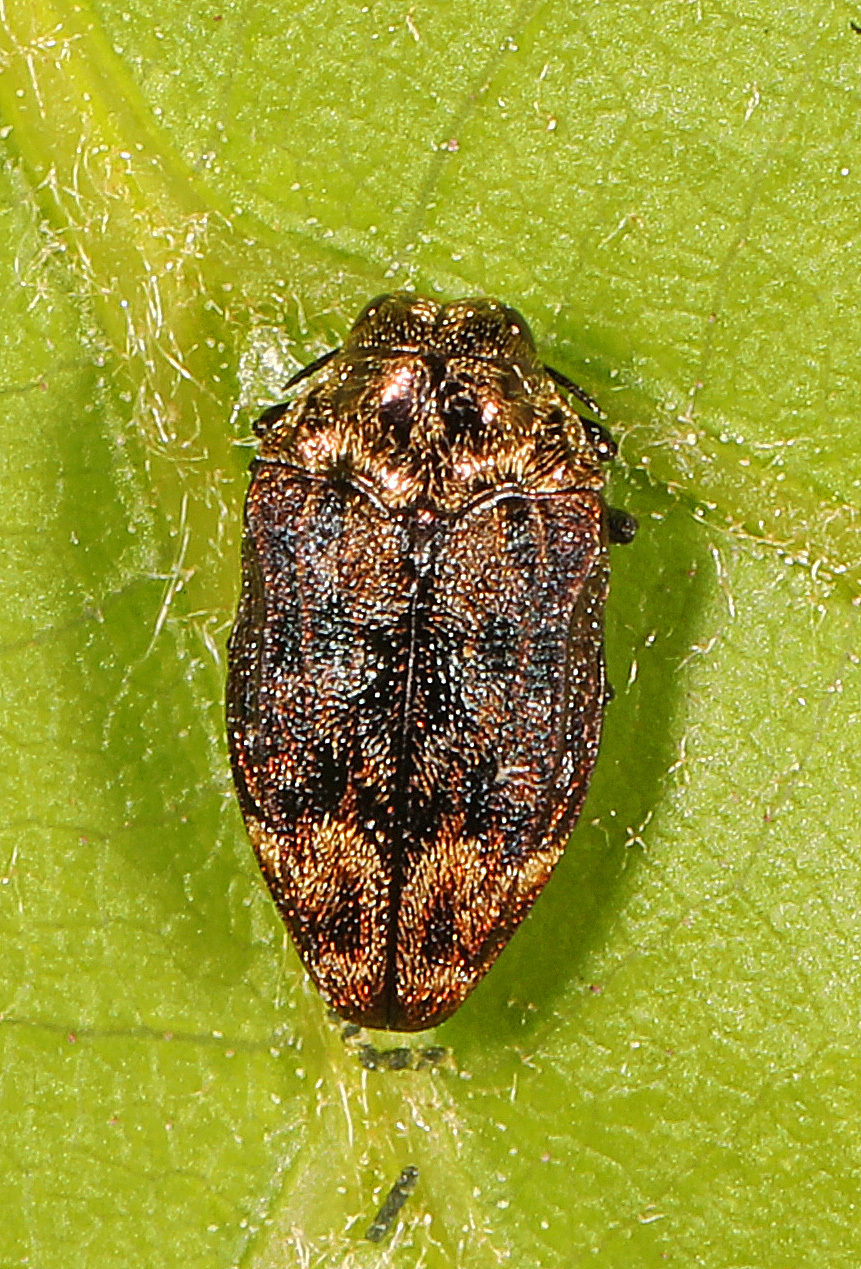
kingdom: Animalia
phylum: Arthropoda
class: Insecta
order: Coleoptera
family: Buprestidae
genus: Brachys
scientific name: Brachys aerosus
